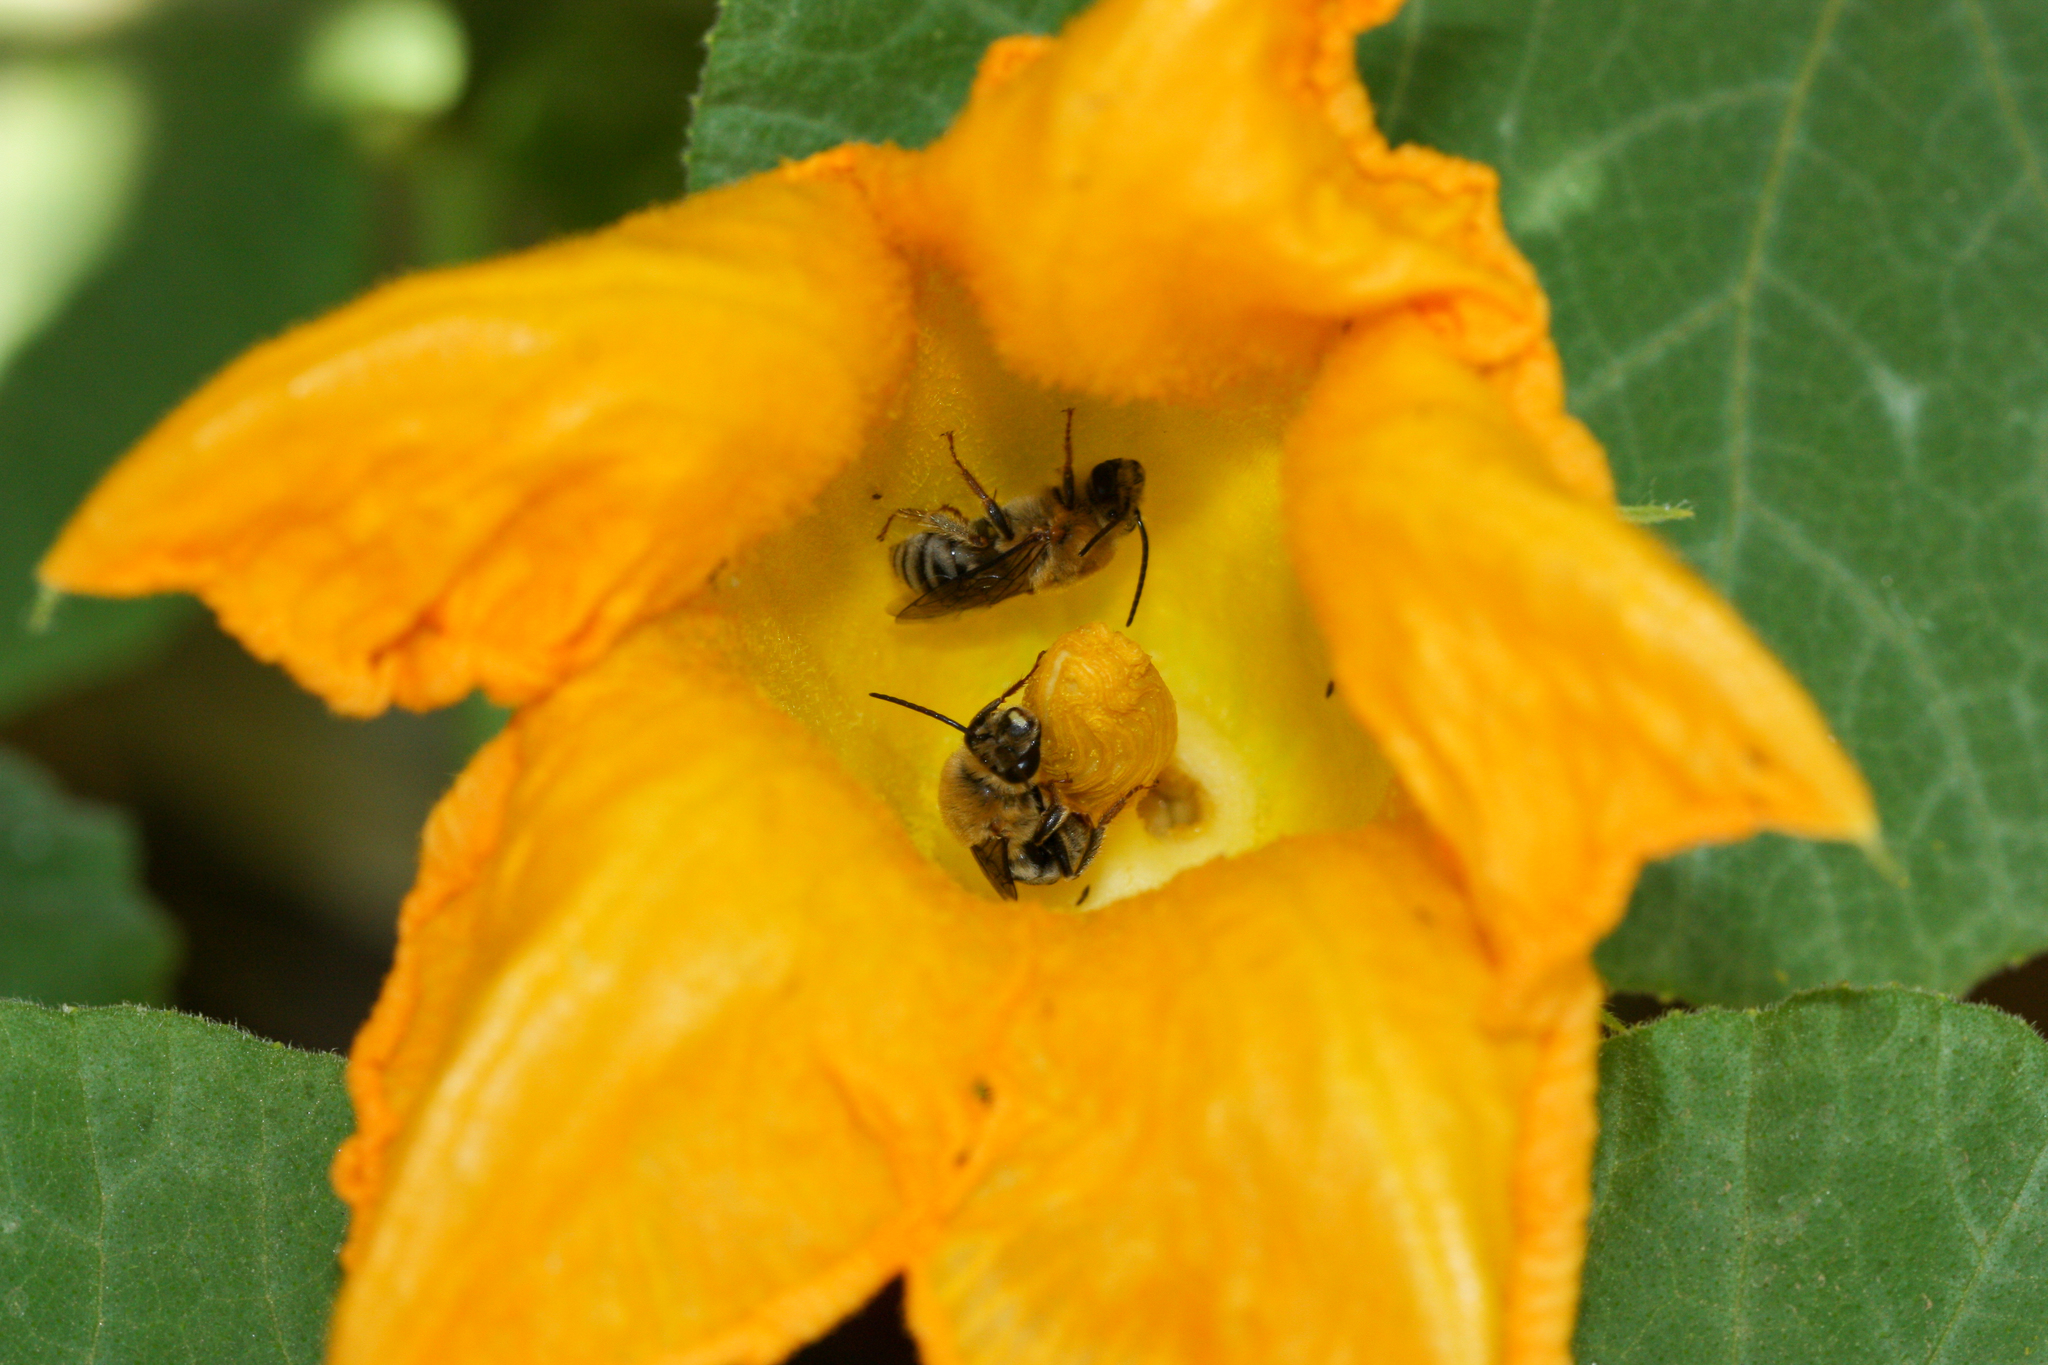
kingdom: Animalia
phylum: Arthropoda
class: Insecta
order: Hymenoptera
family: Apidae
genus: Peponapis
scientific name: Peponapis pruinosa
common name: Pruinose squash bee
